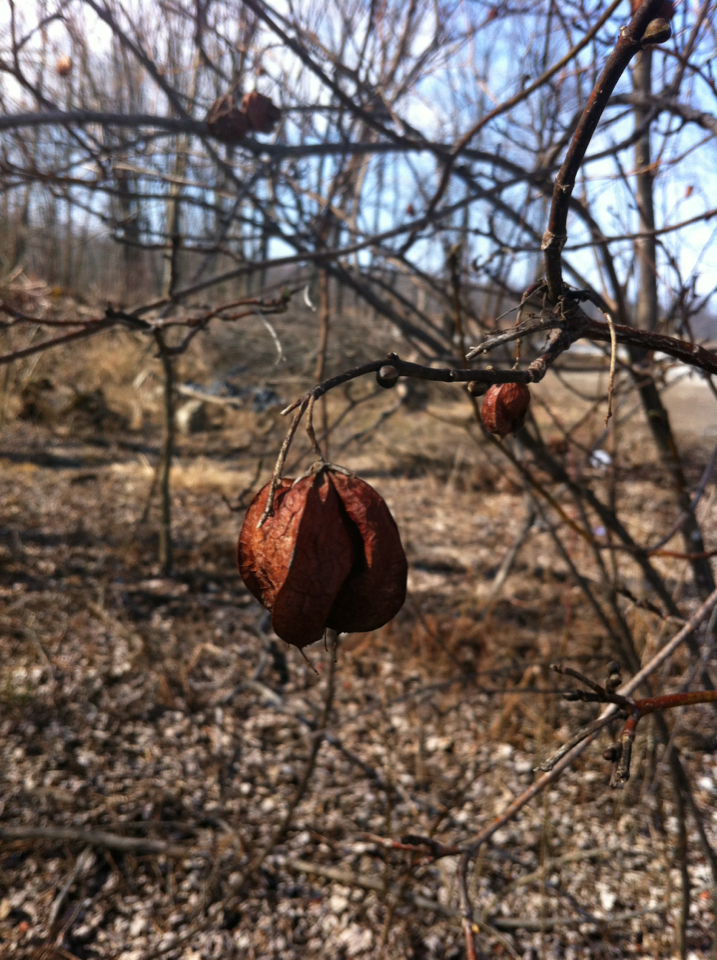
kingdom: Plantae
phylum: Tracheophyta
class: Magnoliopsida
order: Crossosomatales
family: Staphyleaceae
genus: Staphylea
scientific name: Staphylea trifolia
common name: American bladdernut
